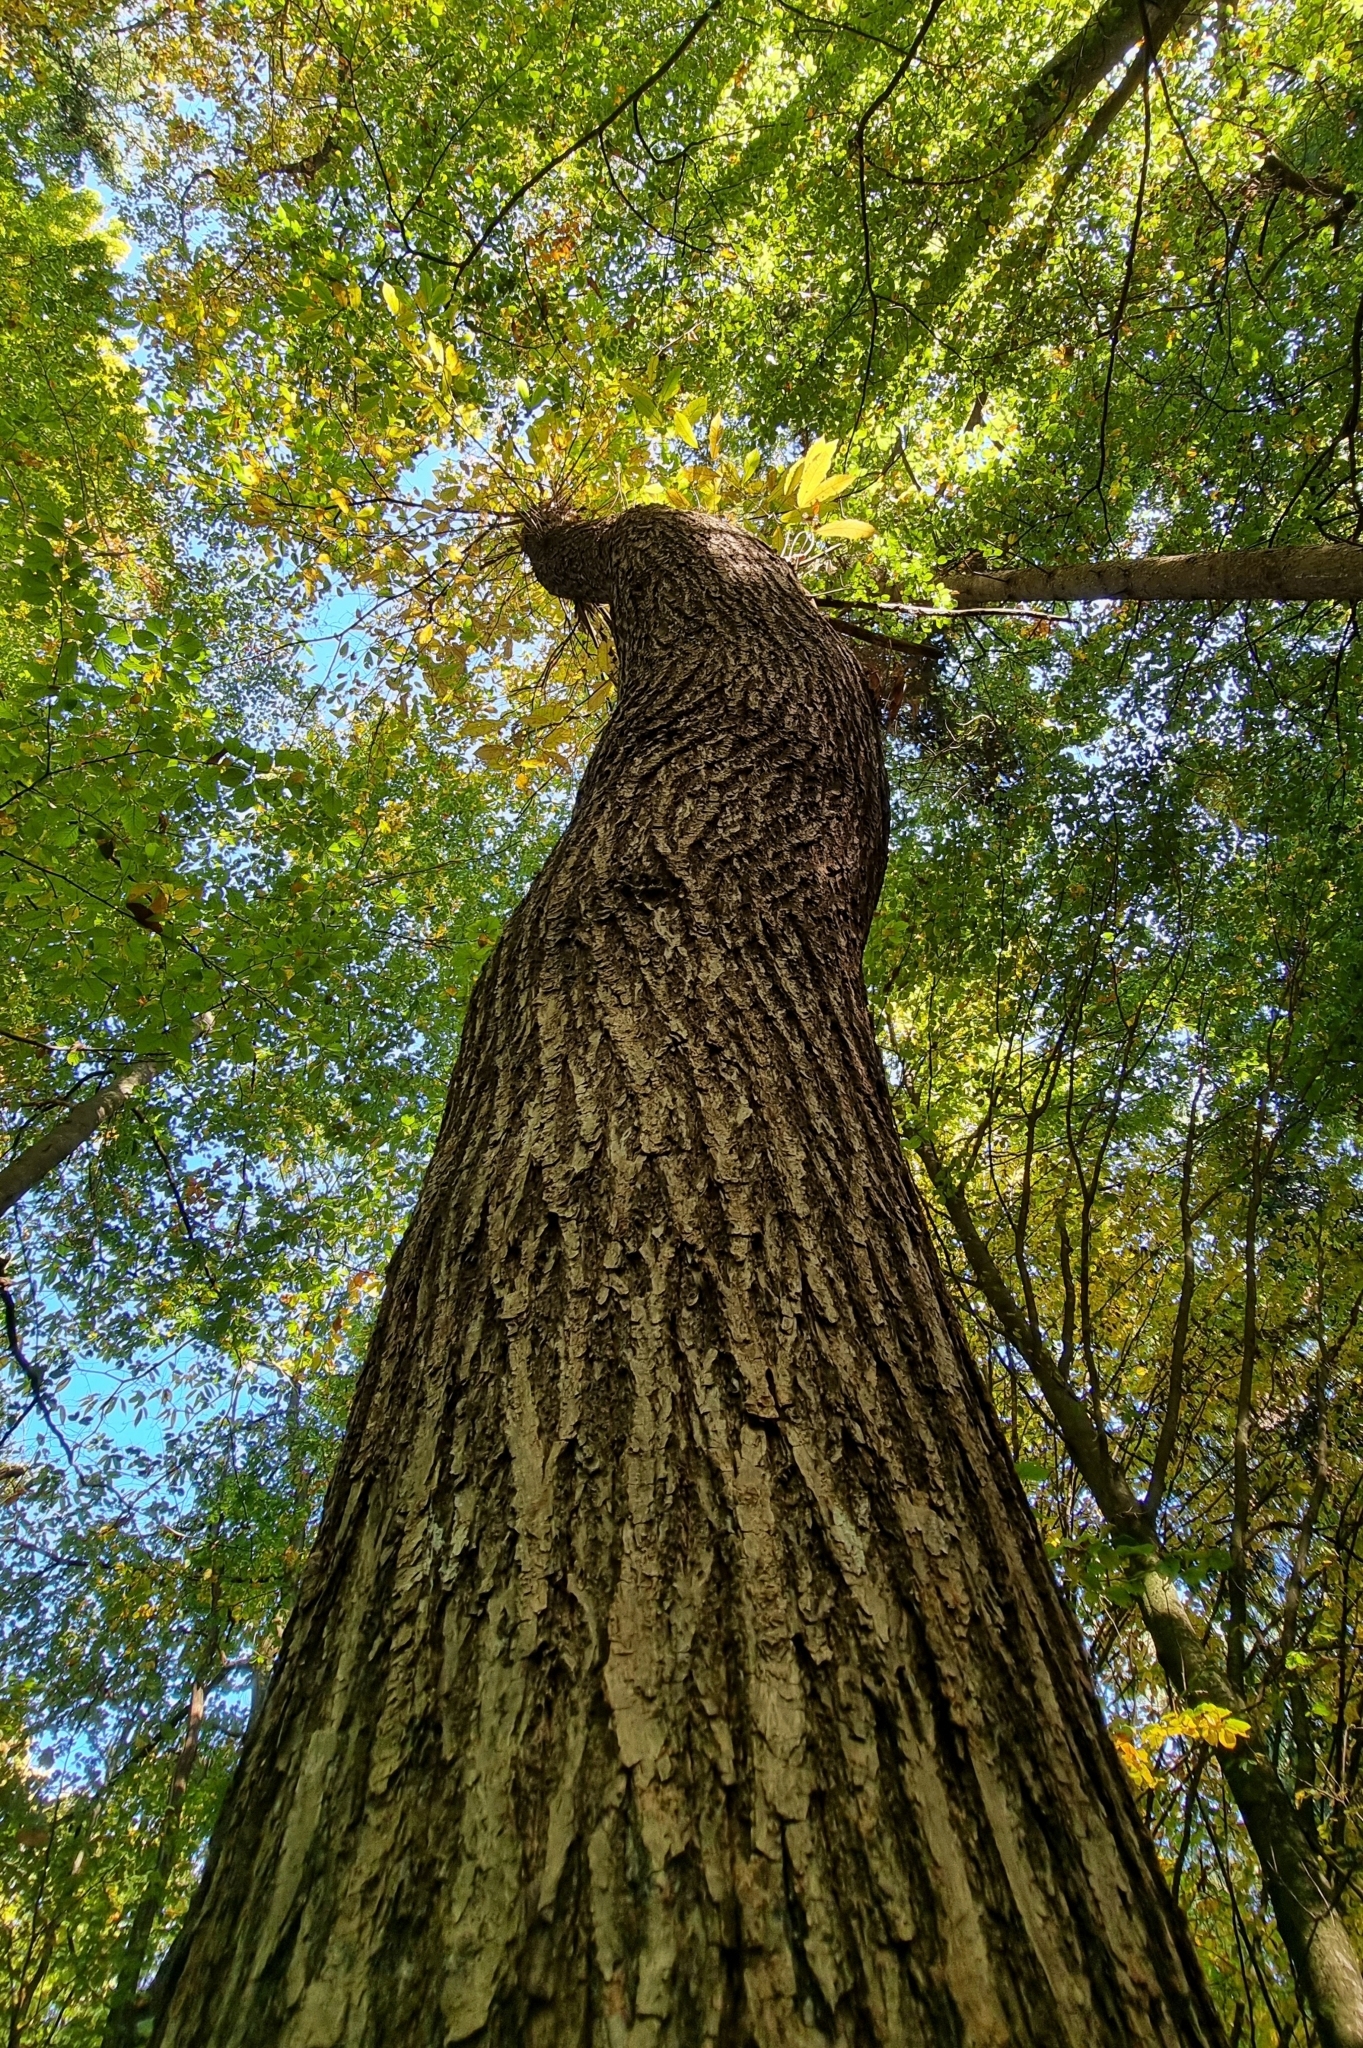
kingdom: Plantae
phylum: Tracheophyta
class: Magnoliopsida
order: Fagales
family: Fagaceae
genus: Castanea
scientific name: Castanea sativa
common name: Sweet chestnut
